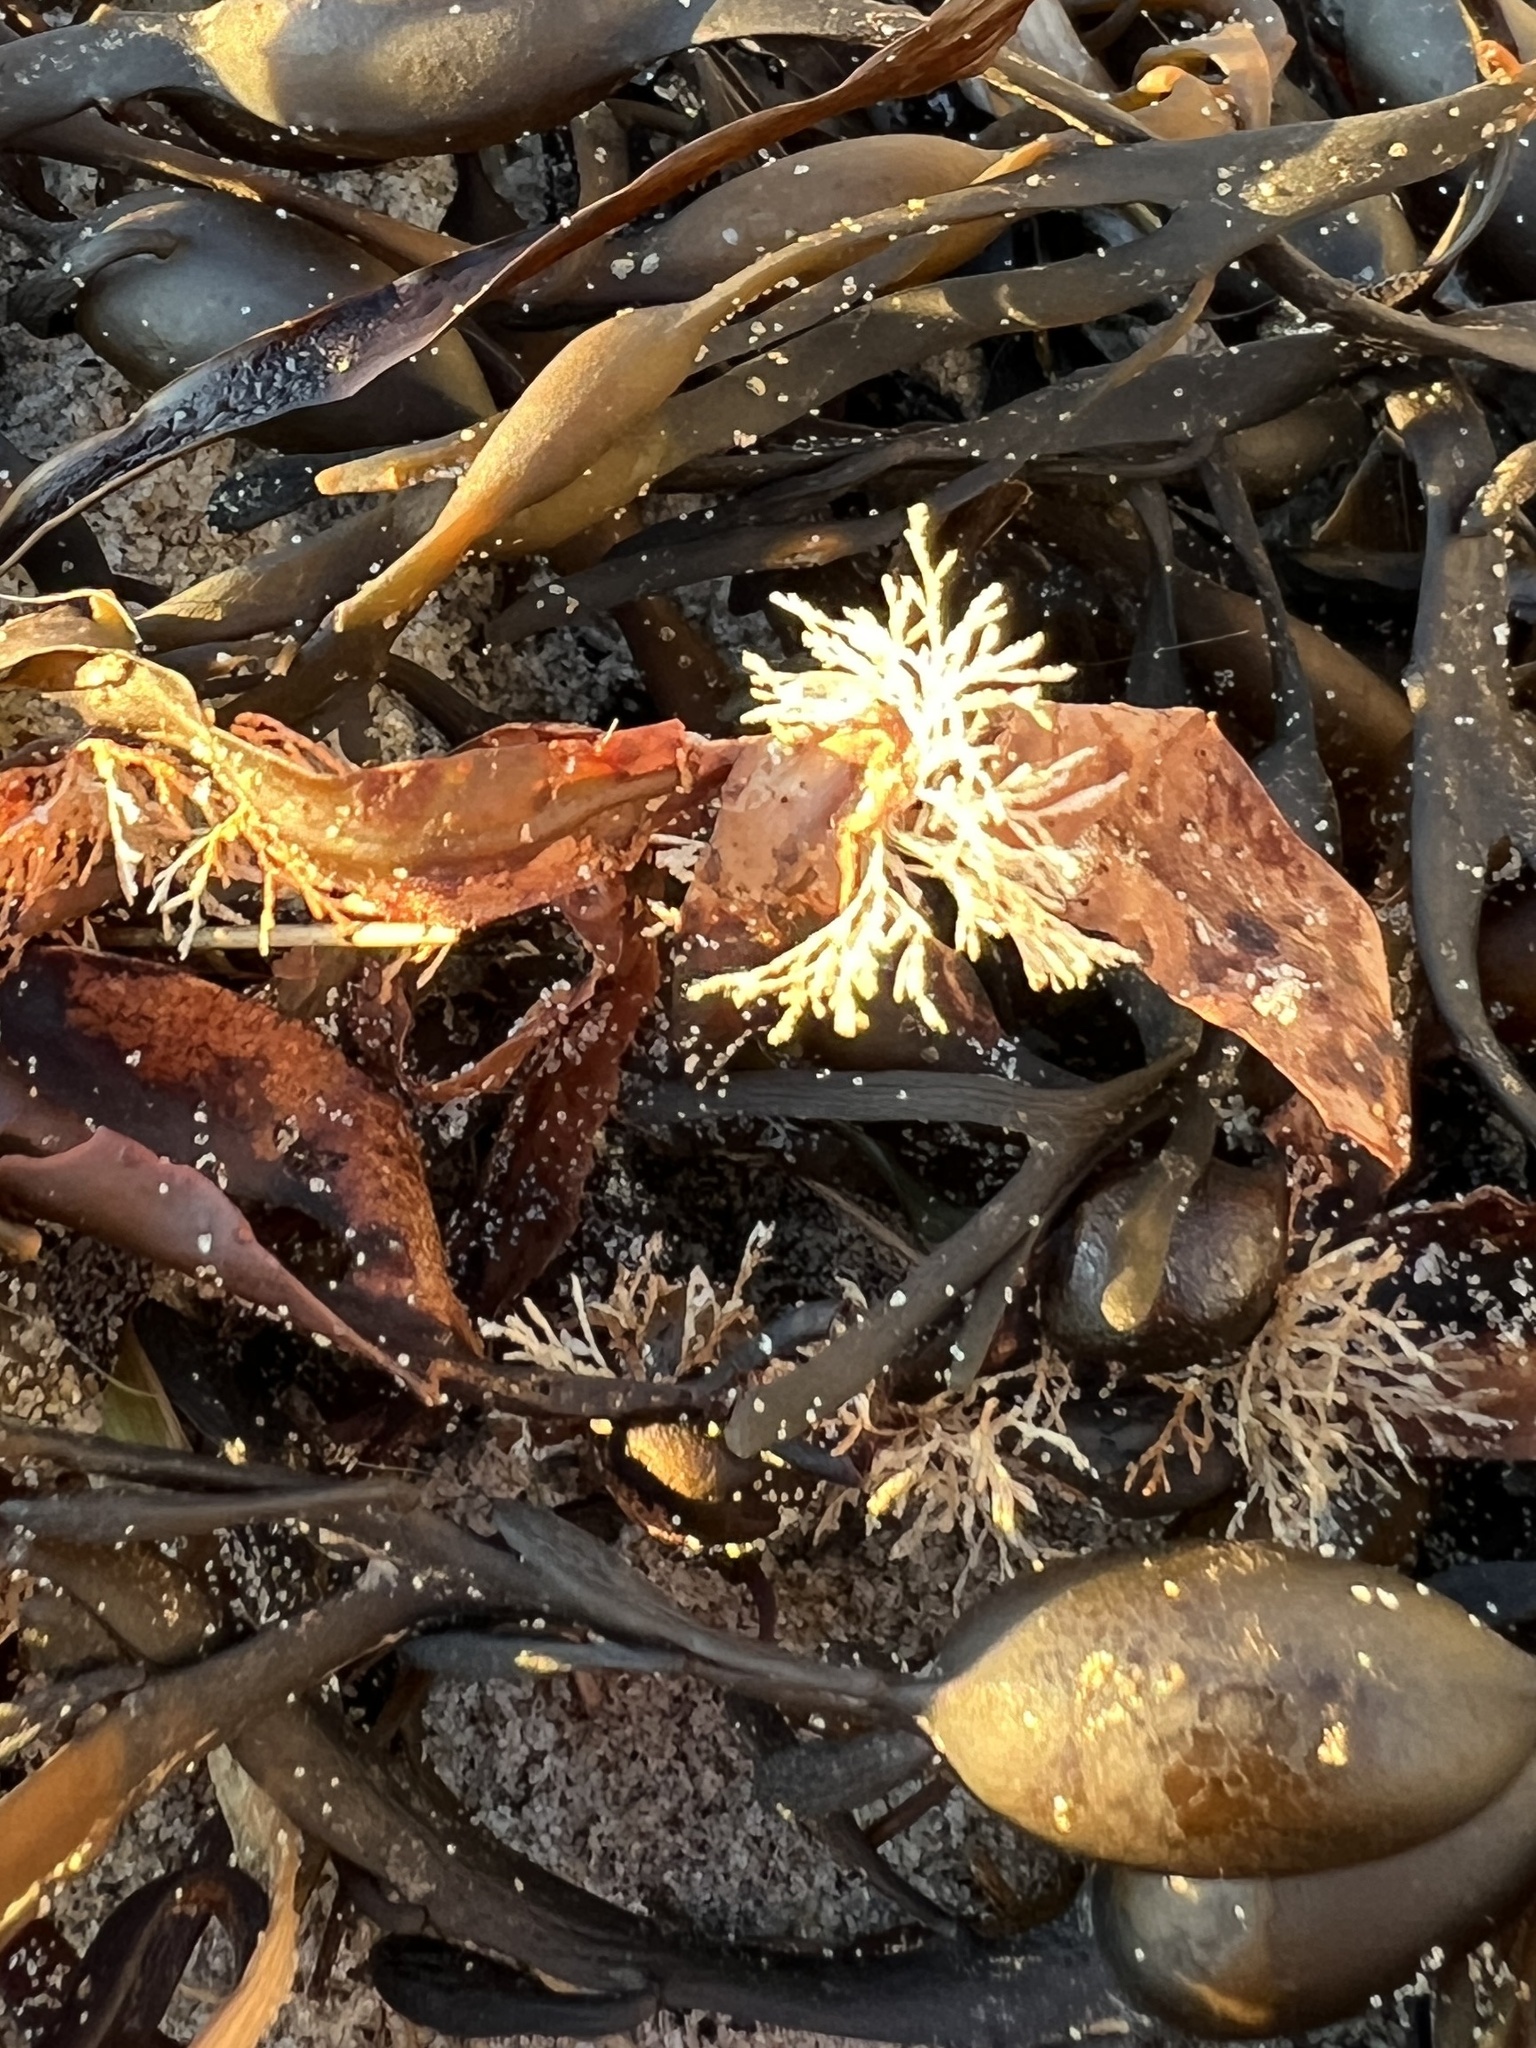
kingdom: Plantae
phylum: Rhodophyta
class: Florideophyceae
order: Corallinales
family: Corallinaceae
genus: Corallina
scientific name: Corallina officinalis
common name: Coral weed
